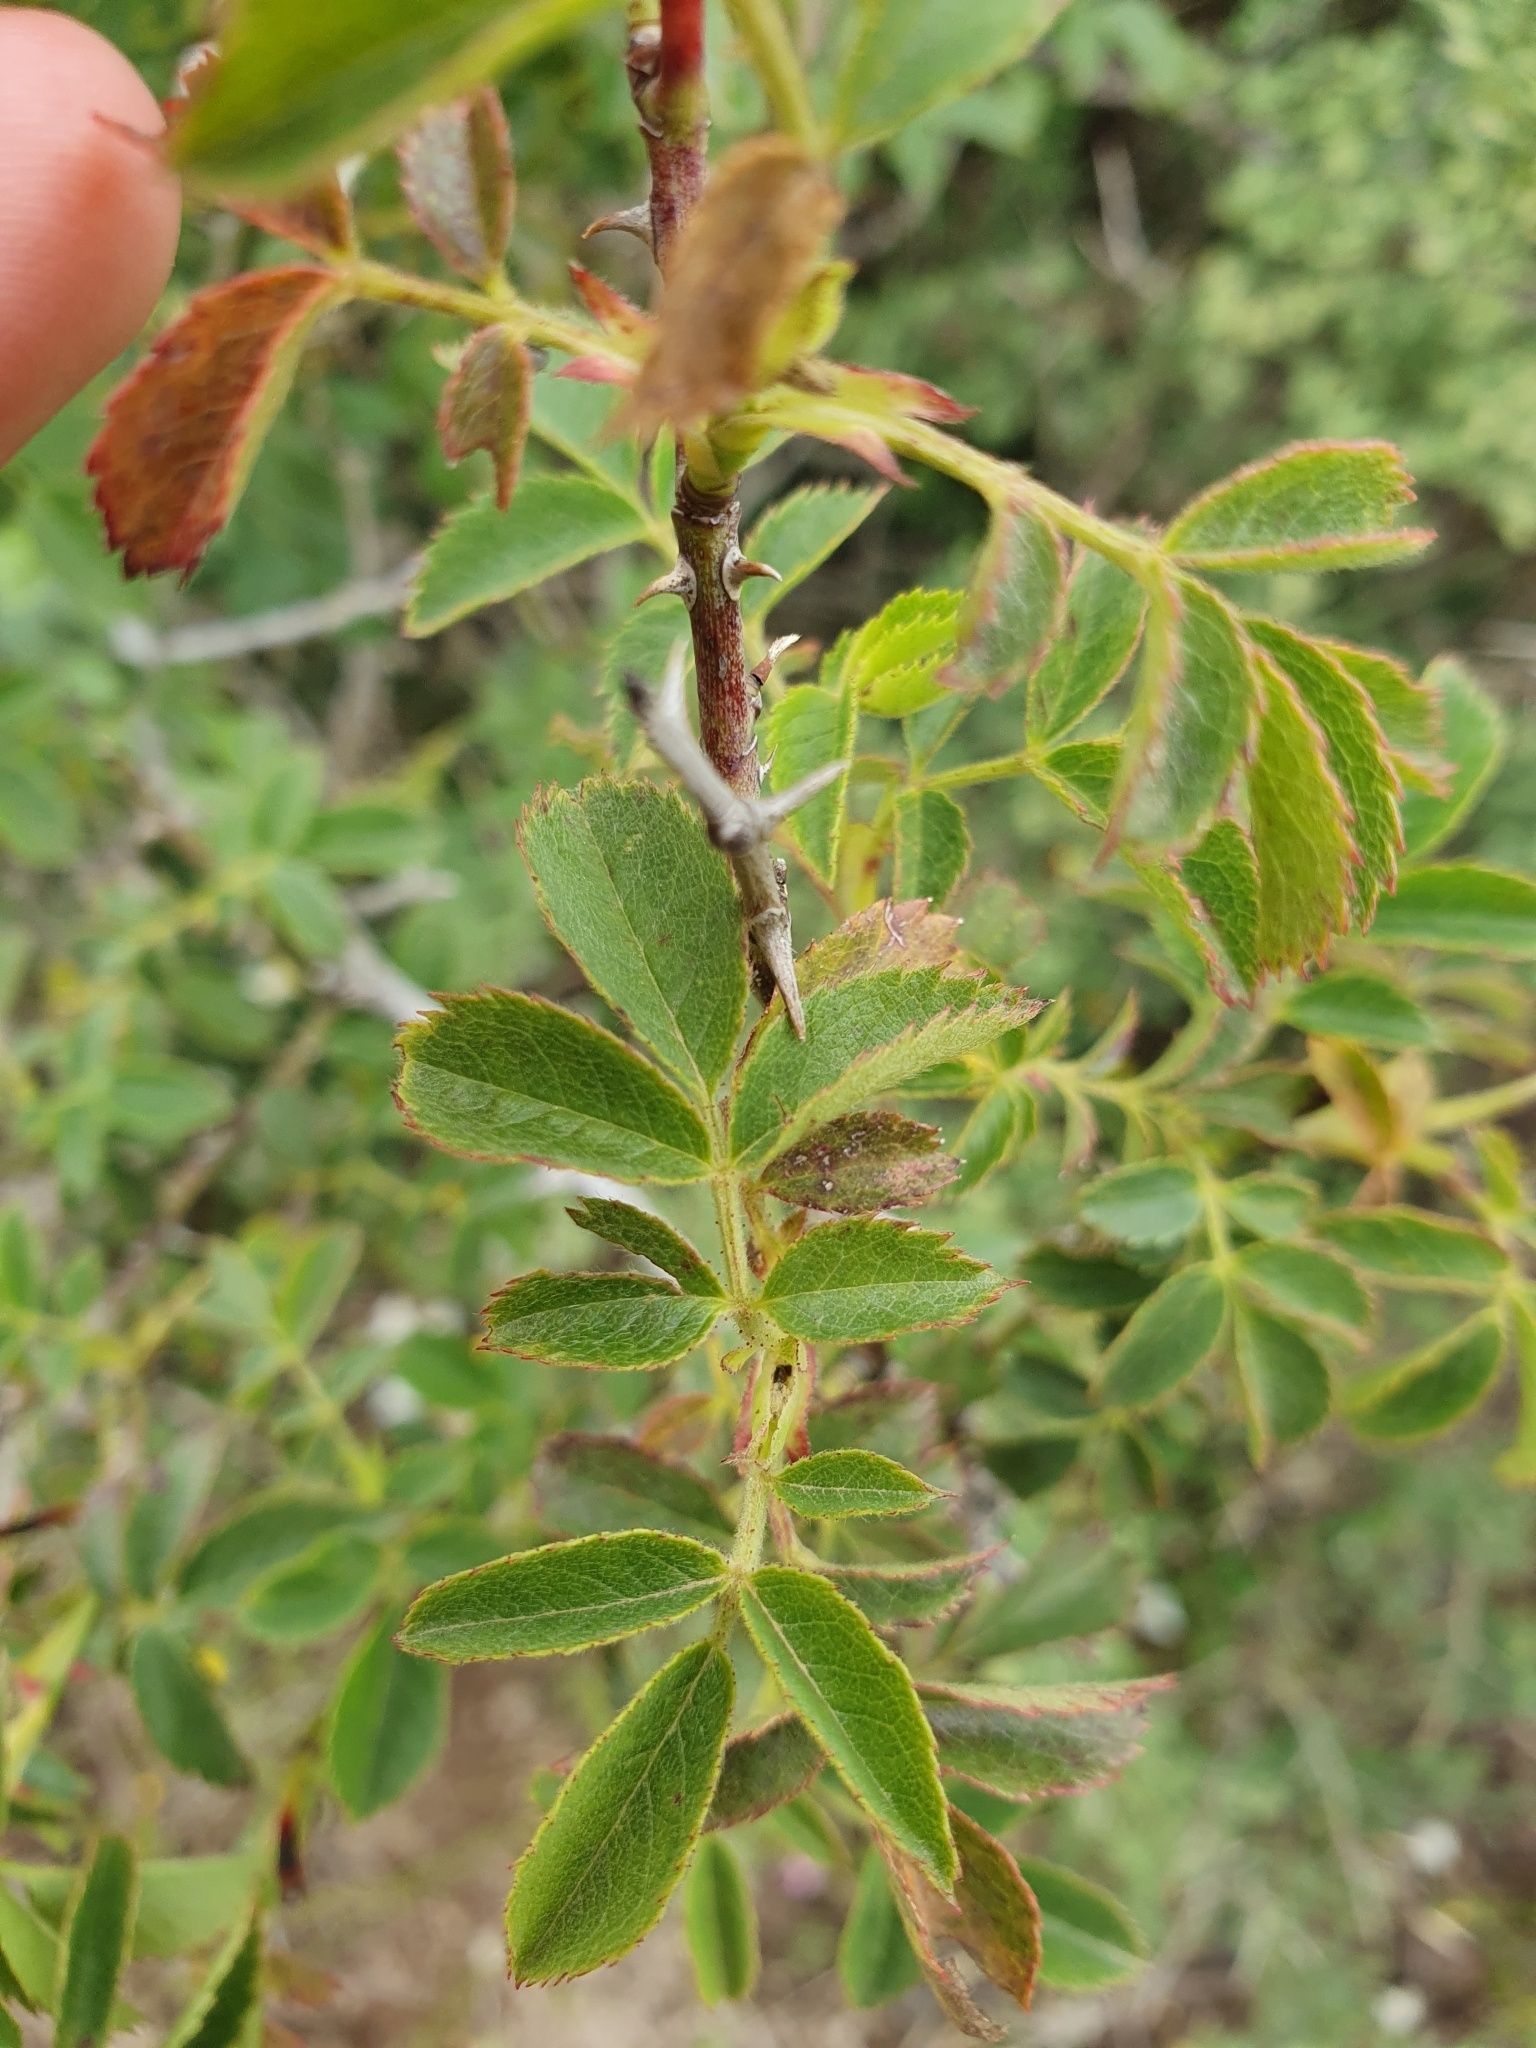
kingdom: Plantae
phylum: Tracheophyta
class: Magnoliopsida
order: Rosales
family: Rosaceae
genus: Rosa
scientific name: Rosa corymbifera
